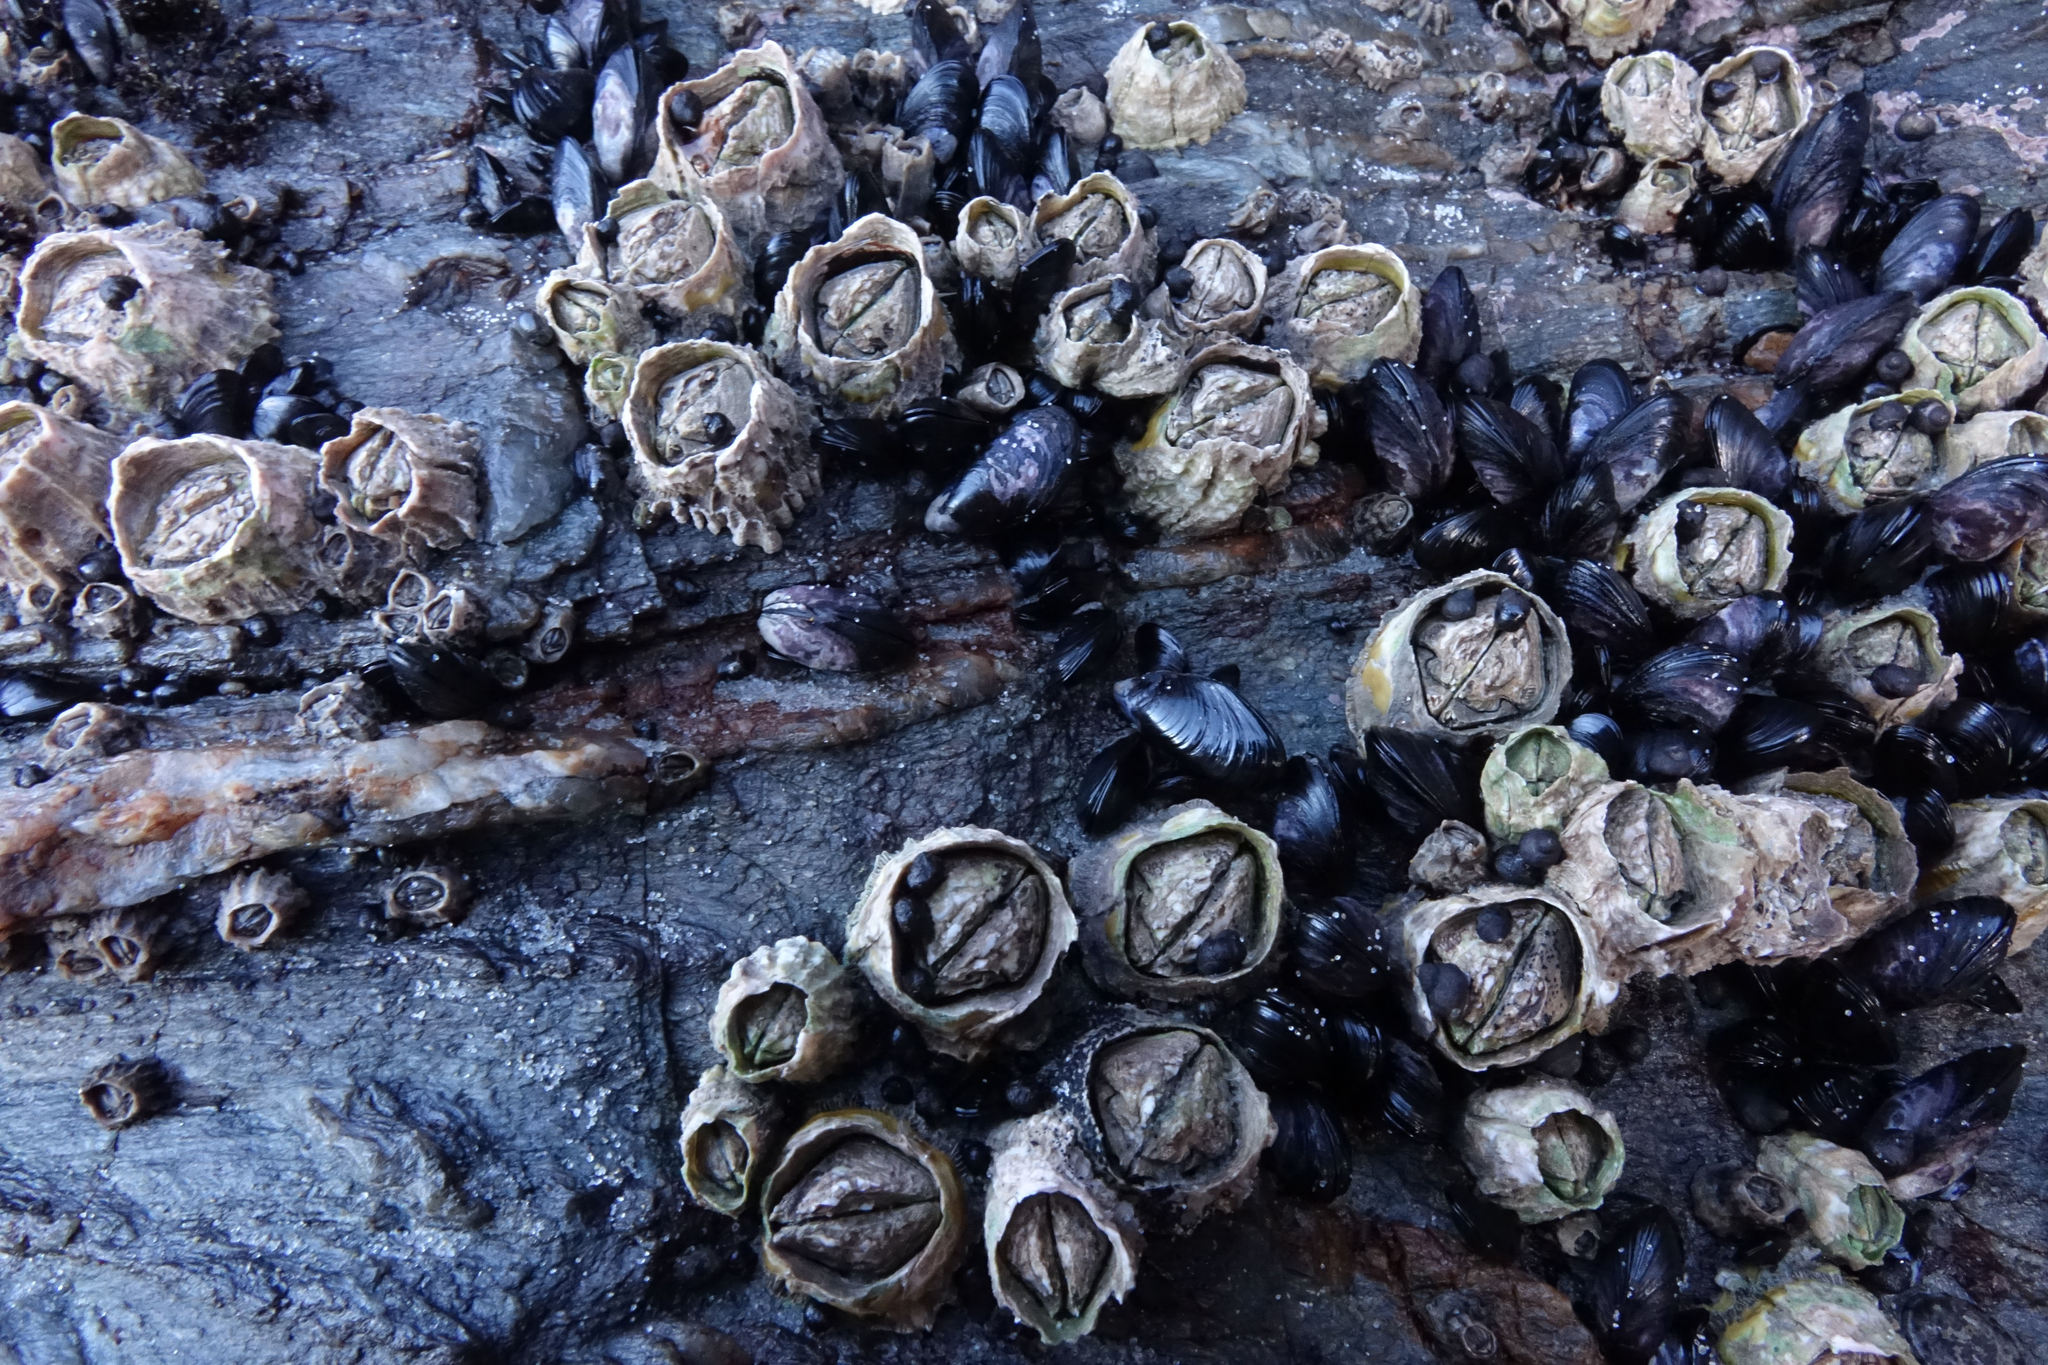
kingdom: Animalia
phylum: Arthropoda
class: Maxillopoda
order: Sessilia
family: Tetraclitidae
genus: Epopella
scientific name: Epopella plicata
